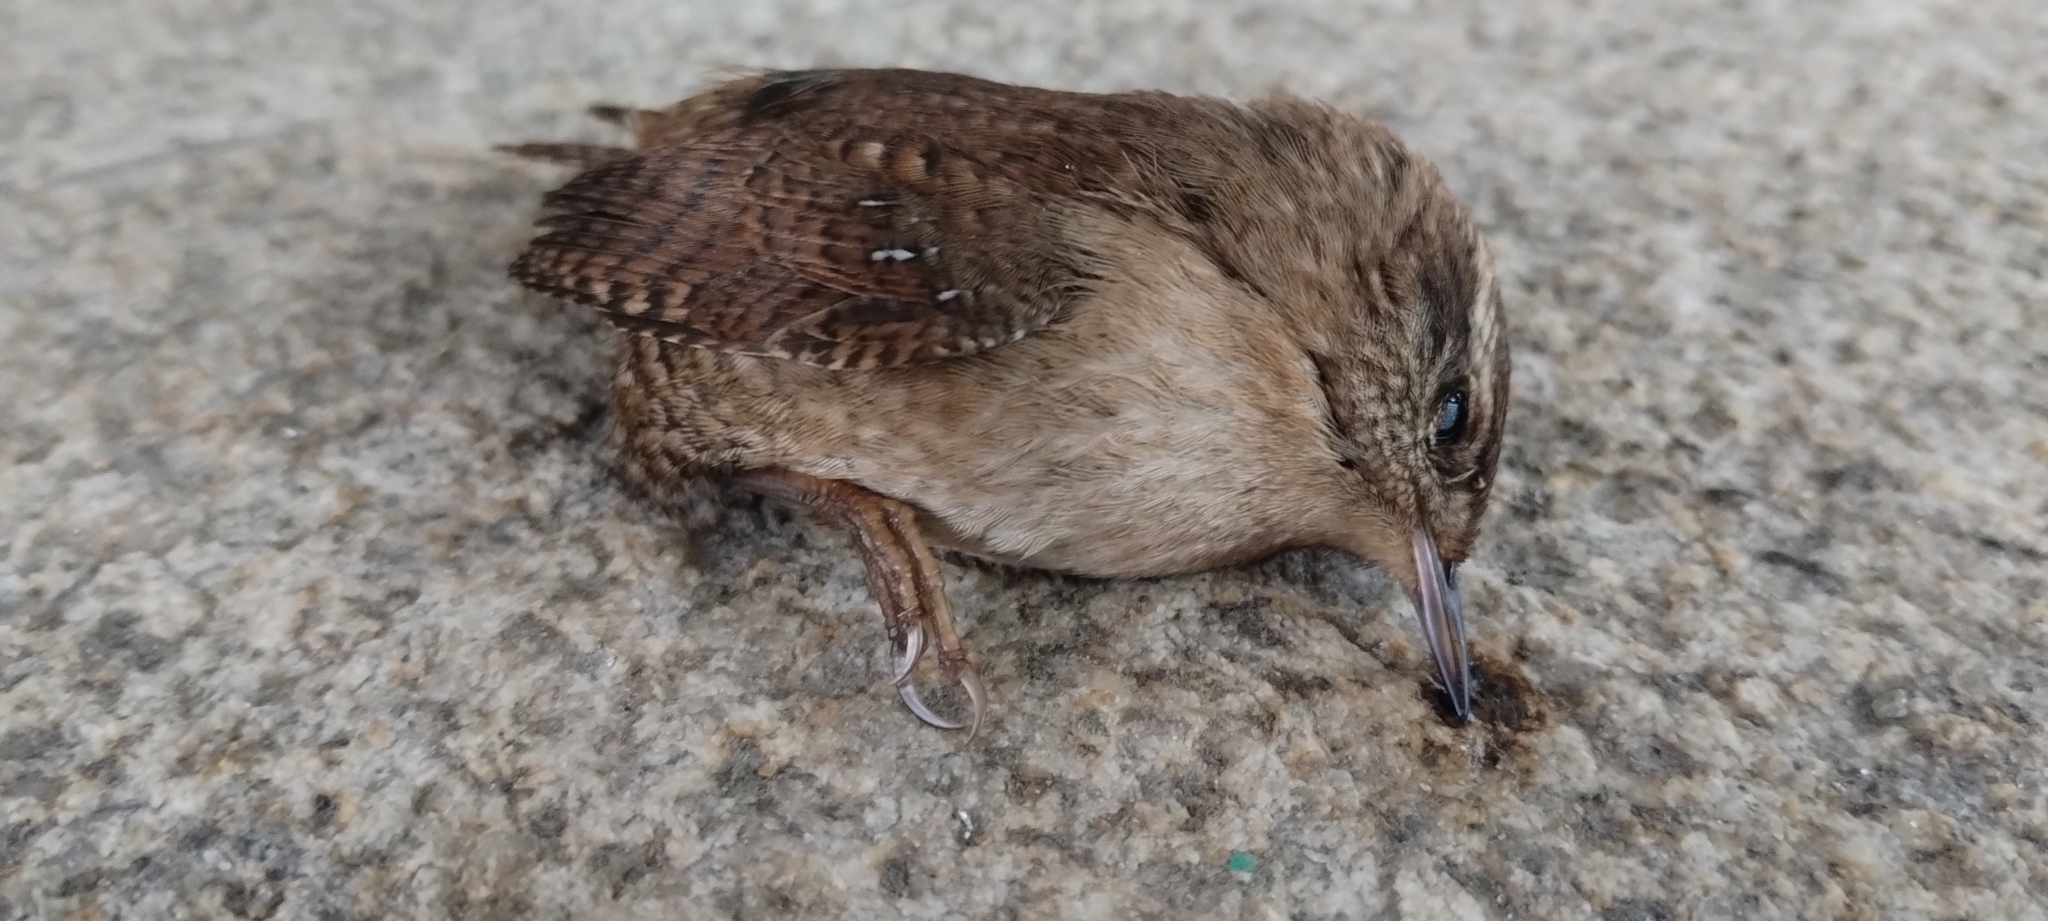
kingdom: Animalia
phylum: Chordata
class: Aves
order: Passeriformes
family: Troglodytidae
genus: Troglodytes
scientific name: Troglodytes troglodytes
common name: Eurasian wren
